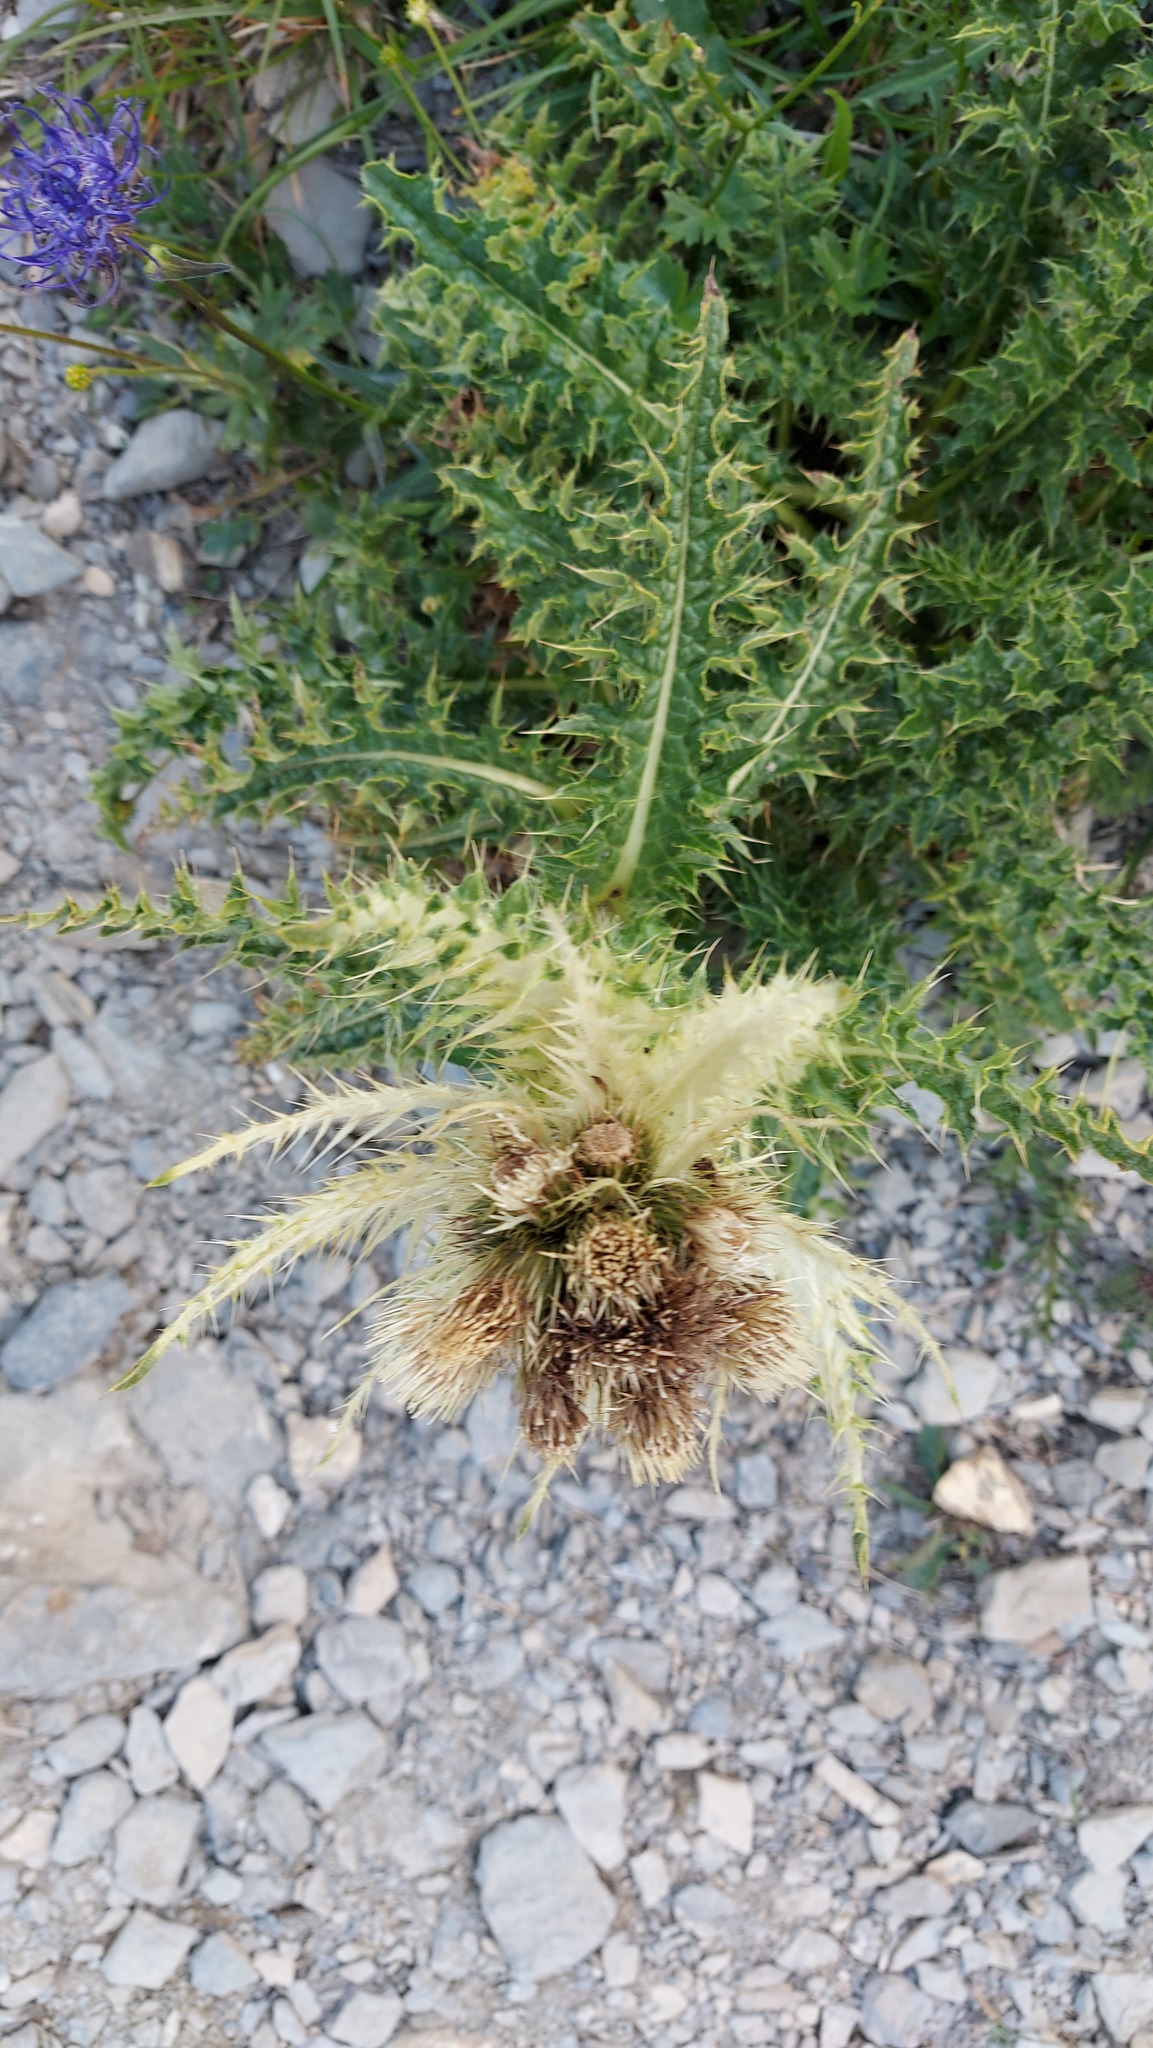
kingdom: Plantae
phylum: Tracheophyta
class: Magnoliopsida
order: Asterales
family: Asteraceae
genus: Cirsium
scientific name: Cirsium spinosissimum
